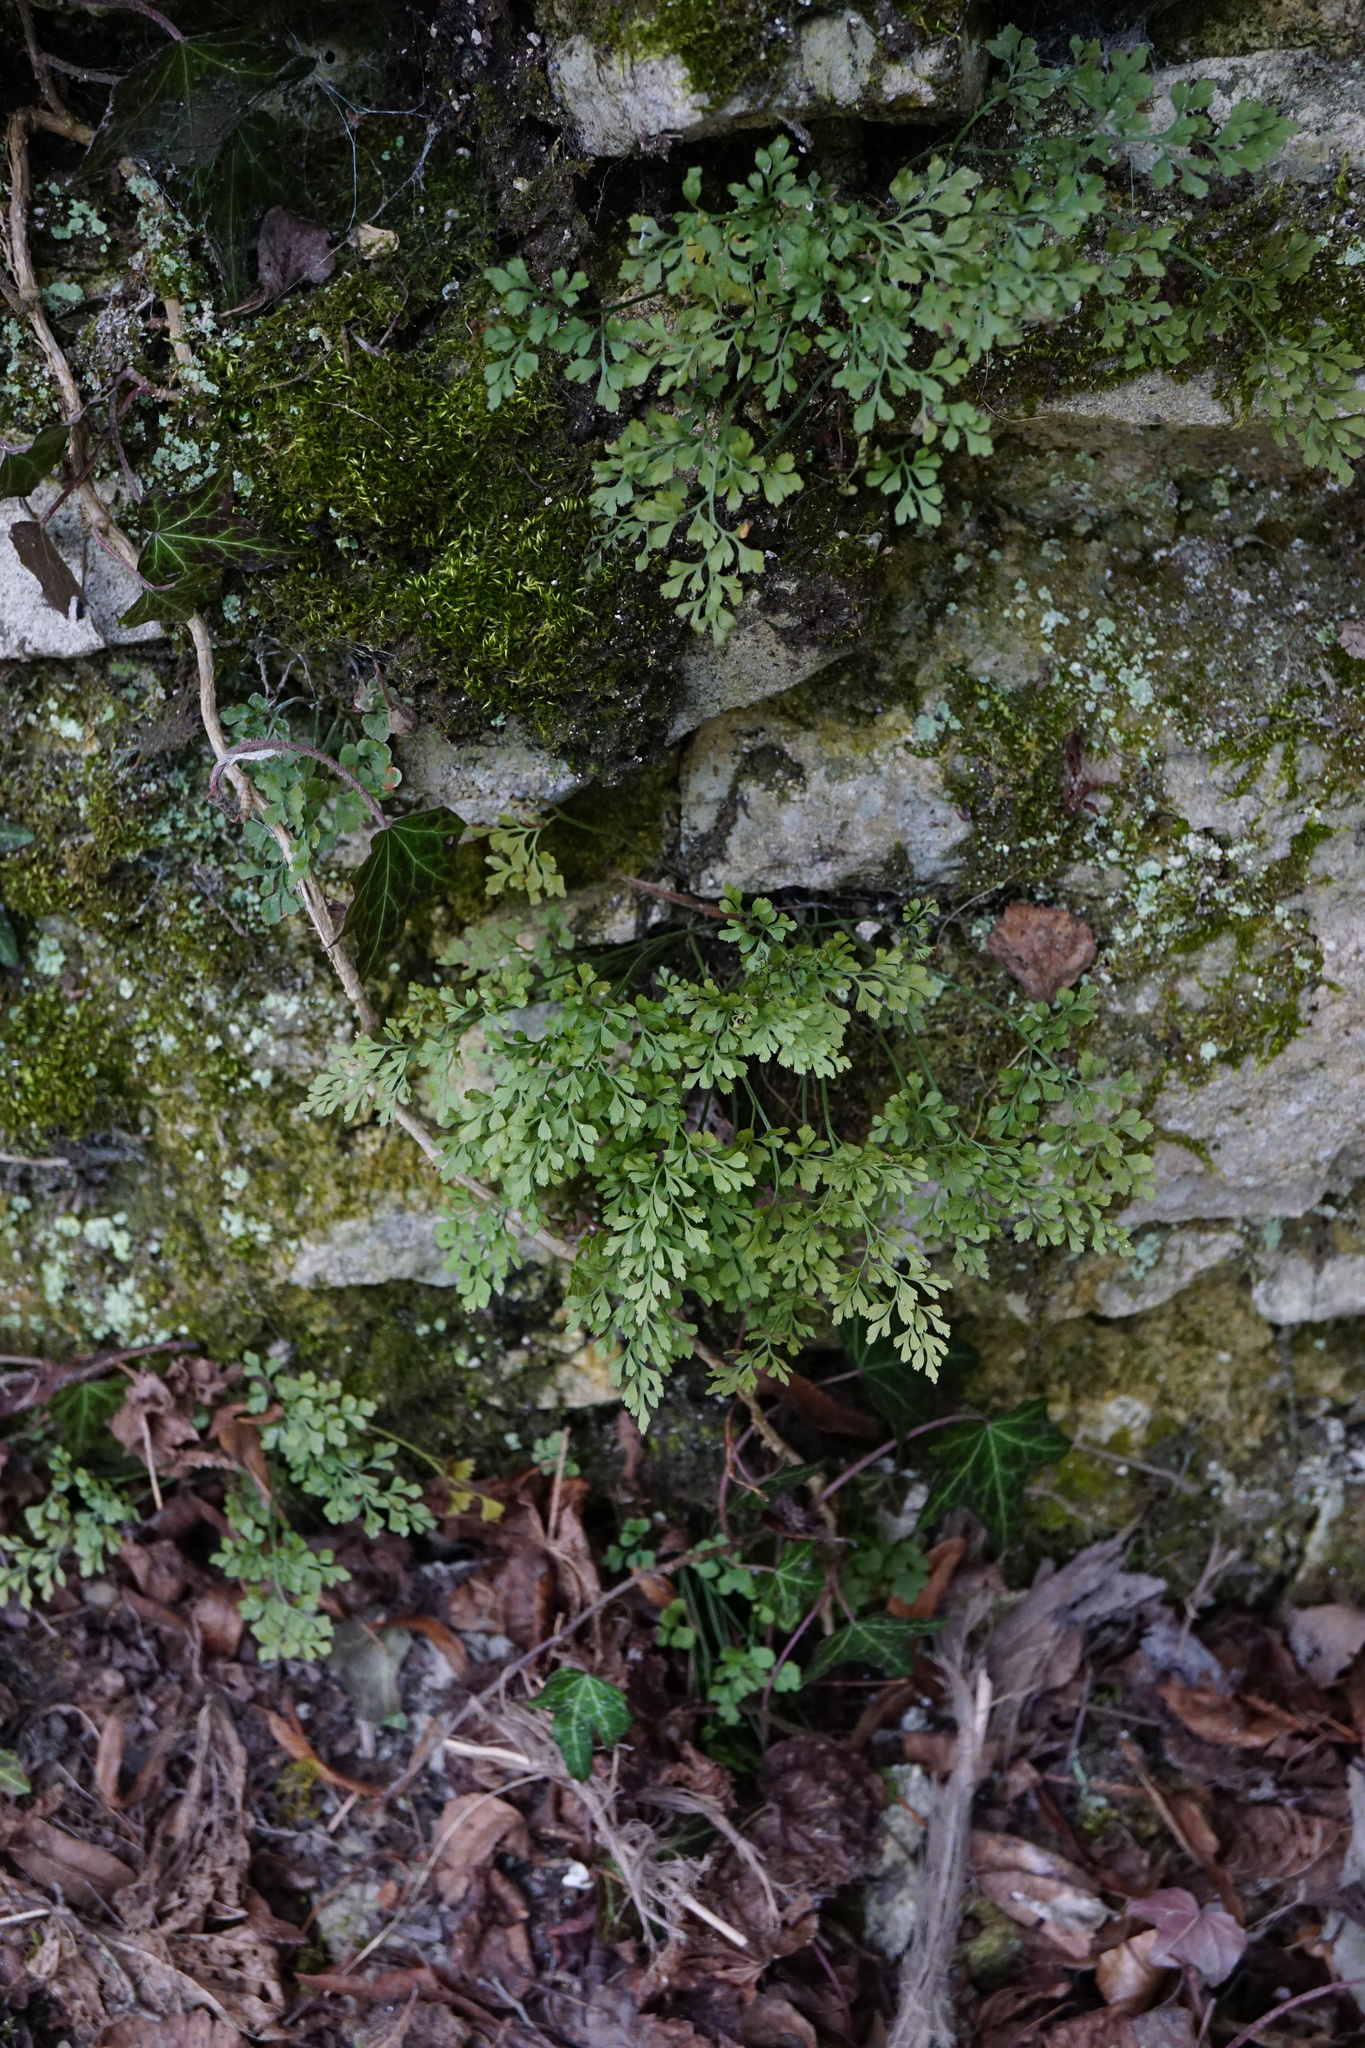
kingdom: Plantae
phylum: Tracheophyta
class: Polypodiopsida
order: Polypodiales
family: Aspleniaceae
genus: Asplenium
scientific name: Asplenium ruta-muraria
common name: Wall-rue
